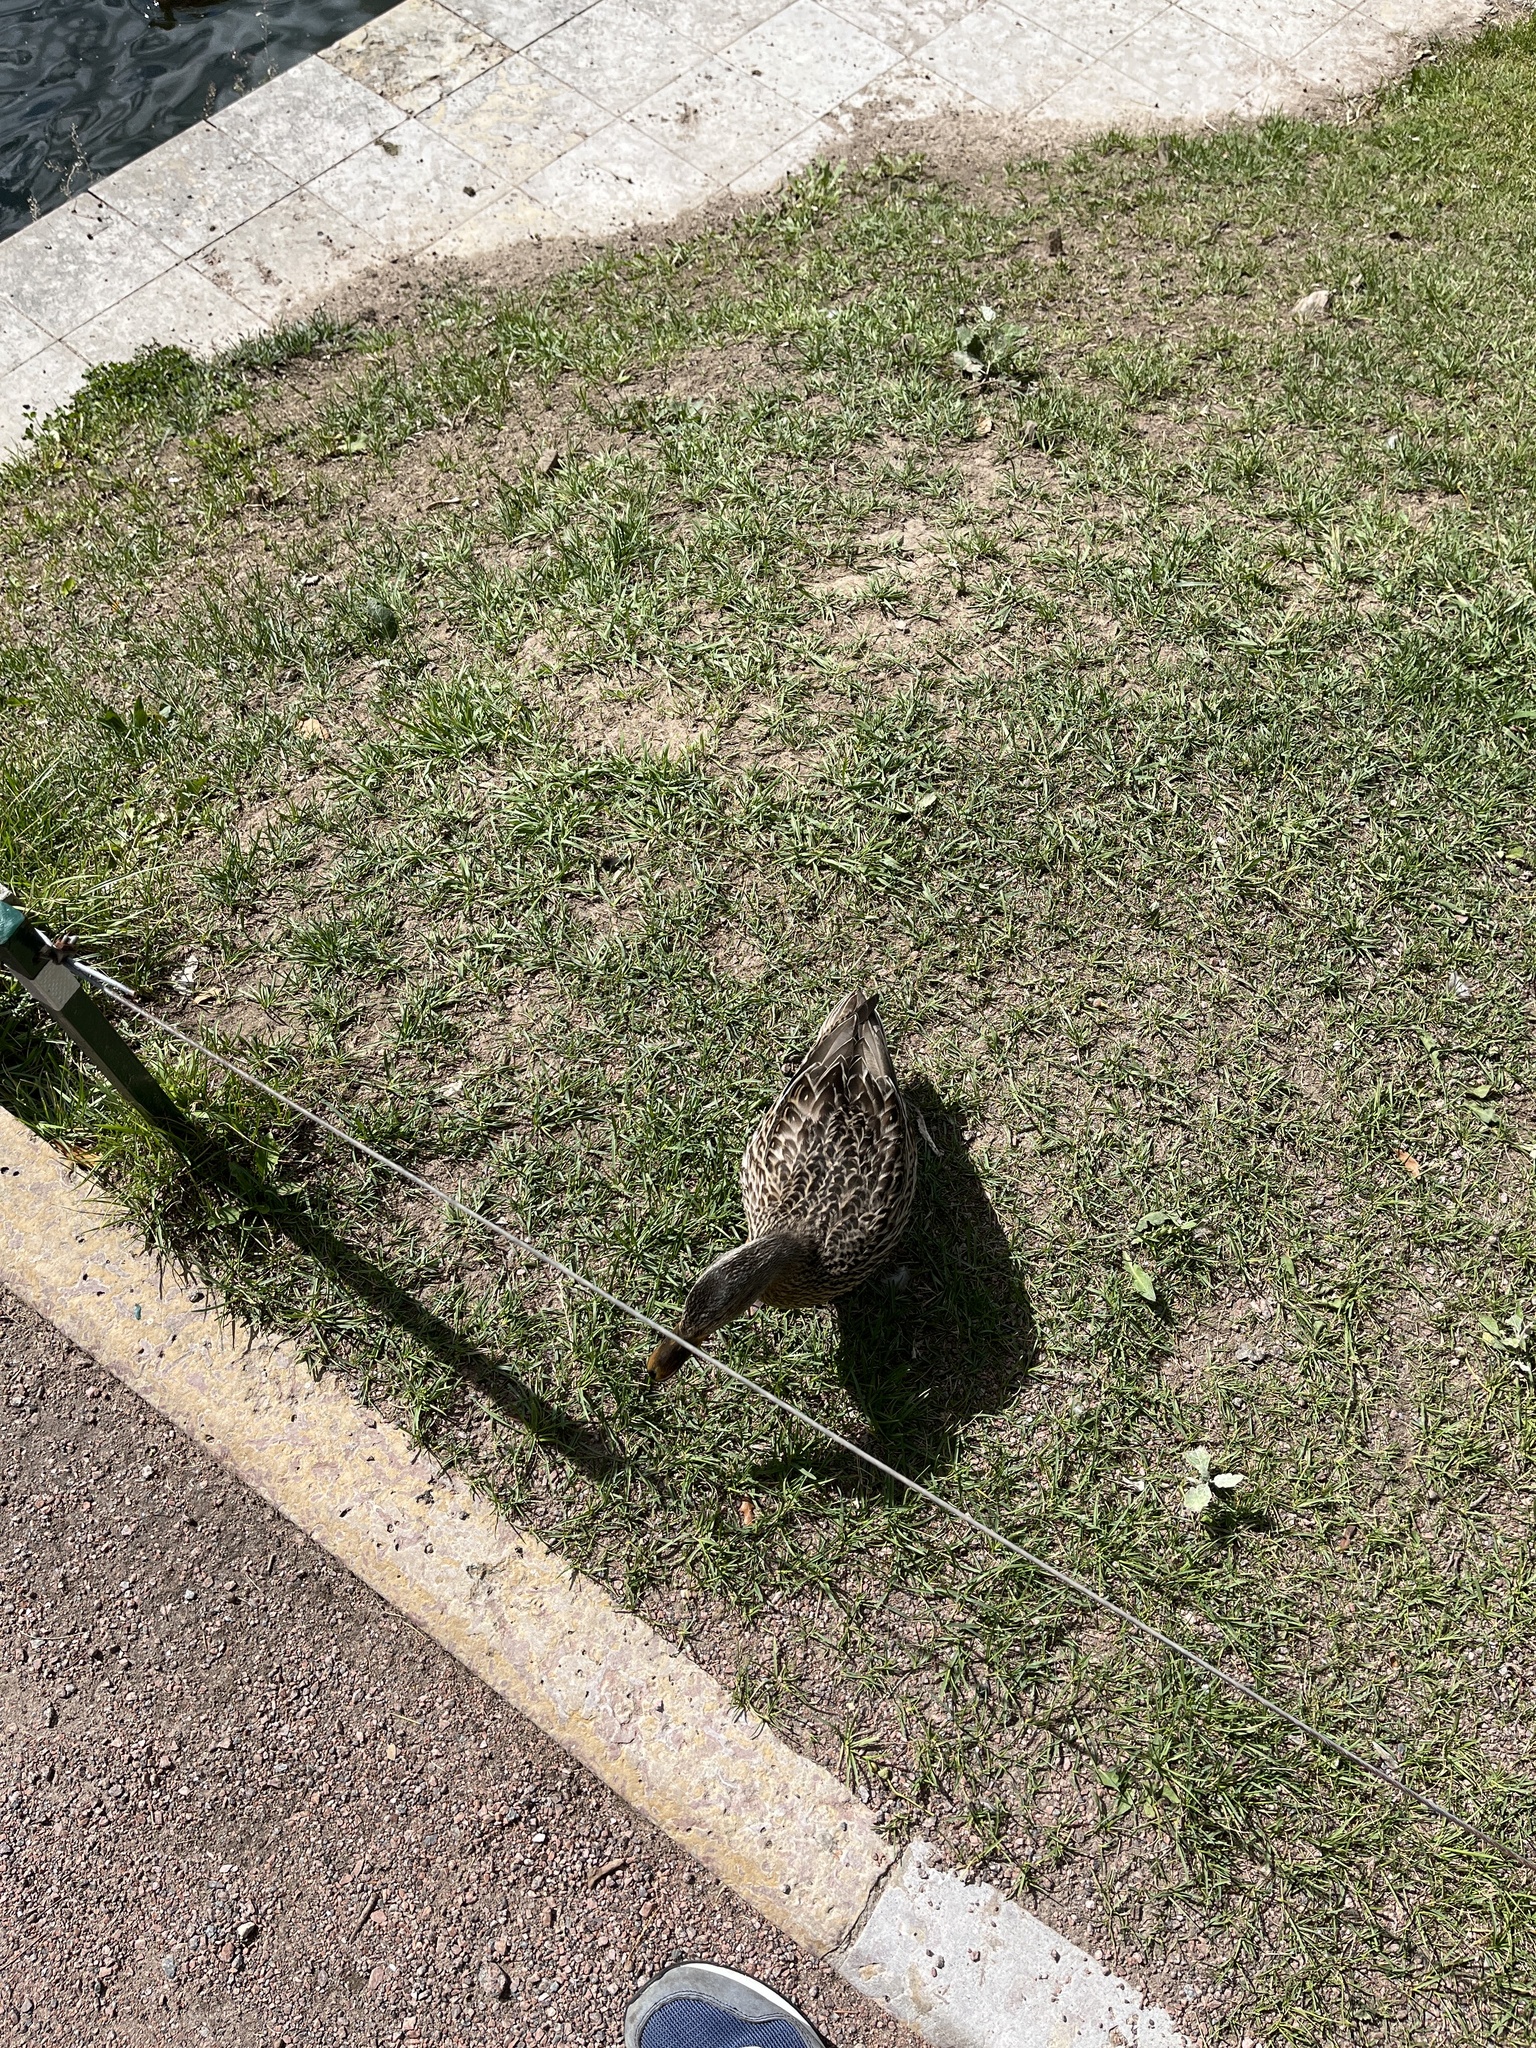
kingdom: Animalia
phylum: Chordata
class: Aves
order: Anseriformes
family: Anatidae
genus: Anas
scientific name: Anas platyrhynchos
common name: Mallard
